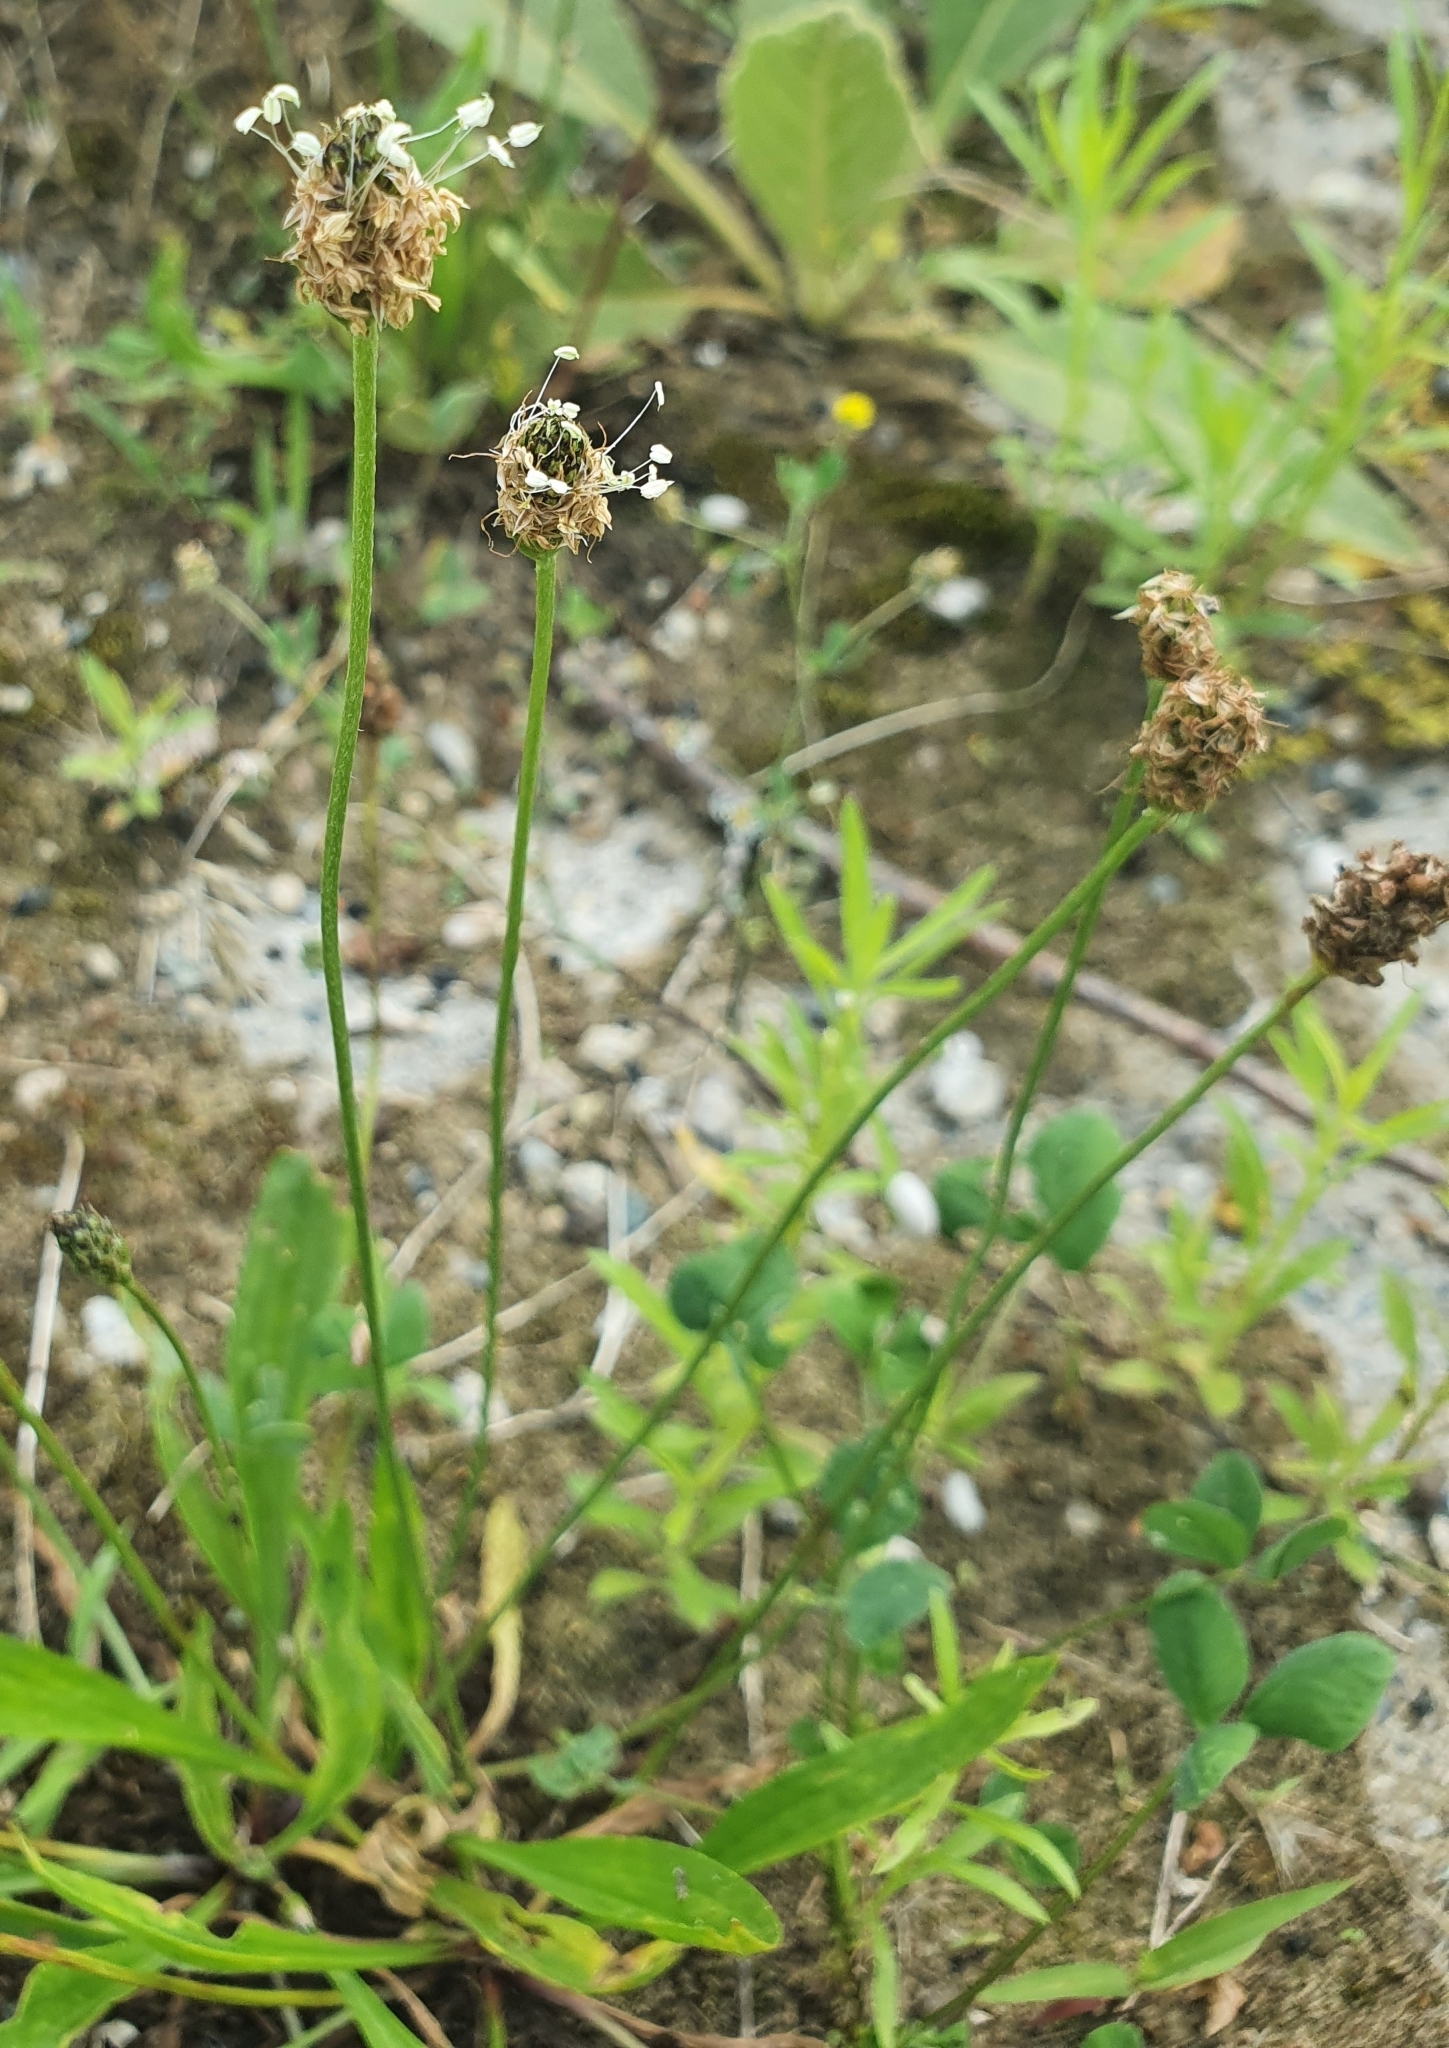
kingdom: Plantae
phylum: Tracheophyta
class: Magnoliopsida
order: Lamiales
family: Plantaginaceae
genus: Plantago
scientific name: Plantago lanceolata
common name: Ribwort plantain
